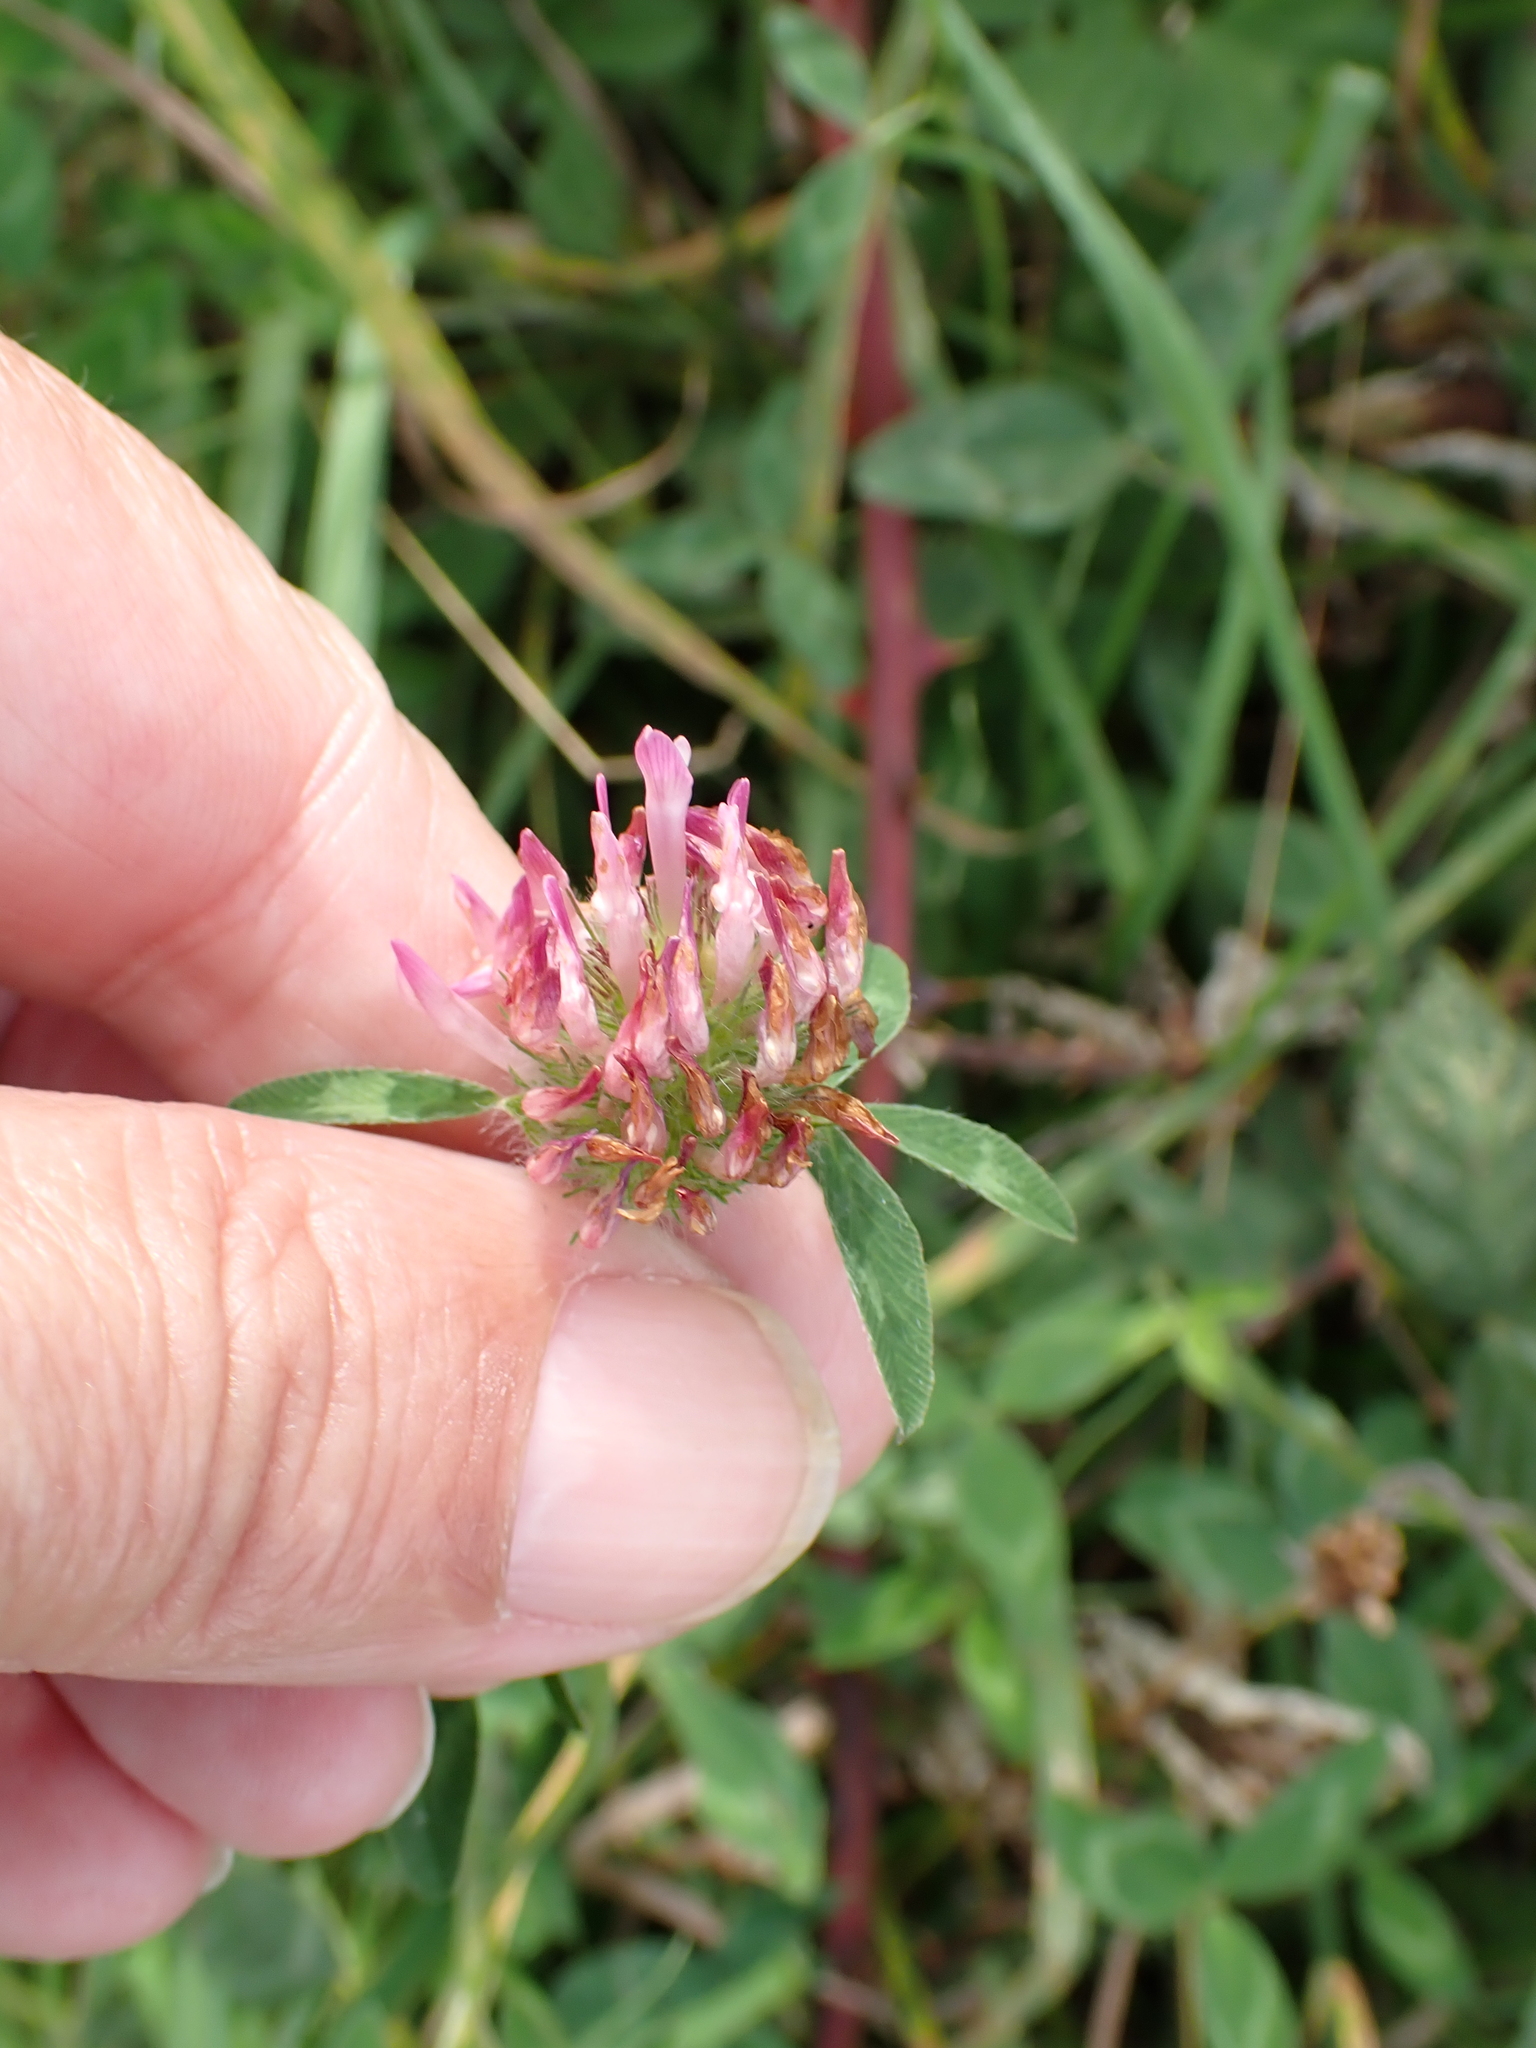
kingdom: Plantae
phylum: Tracheophyta
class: Magnoliopsida
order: Fabales
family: Fabaceae
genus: Trifolium
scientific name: Trifolium pratense
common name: Red clover
